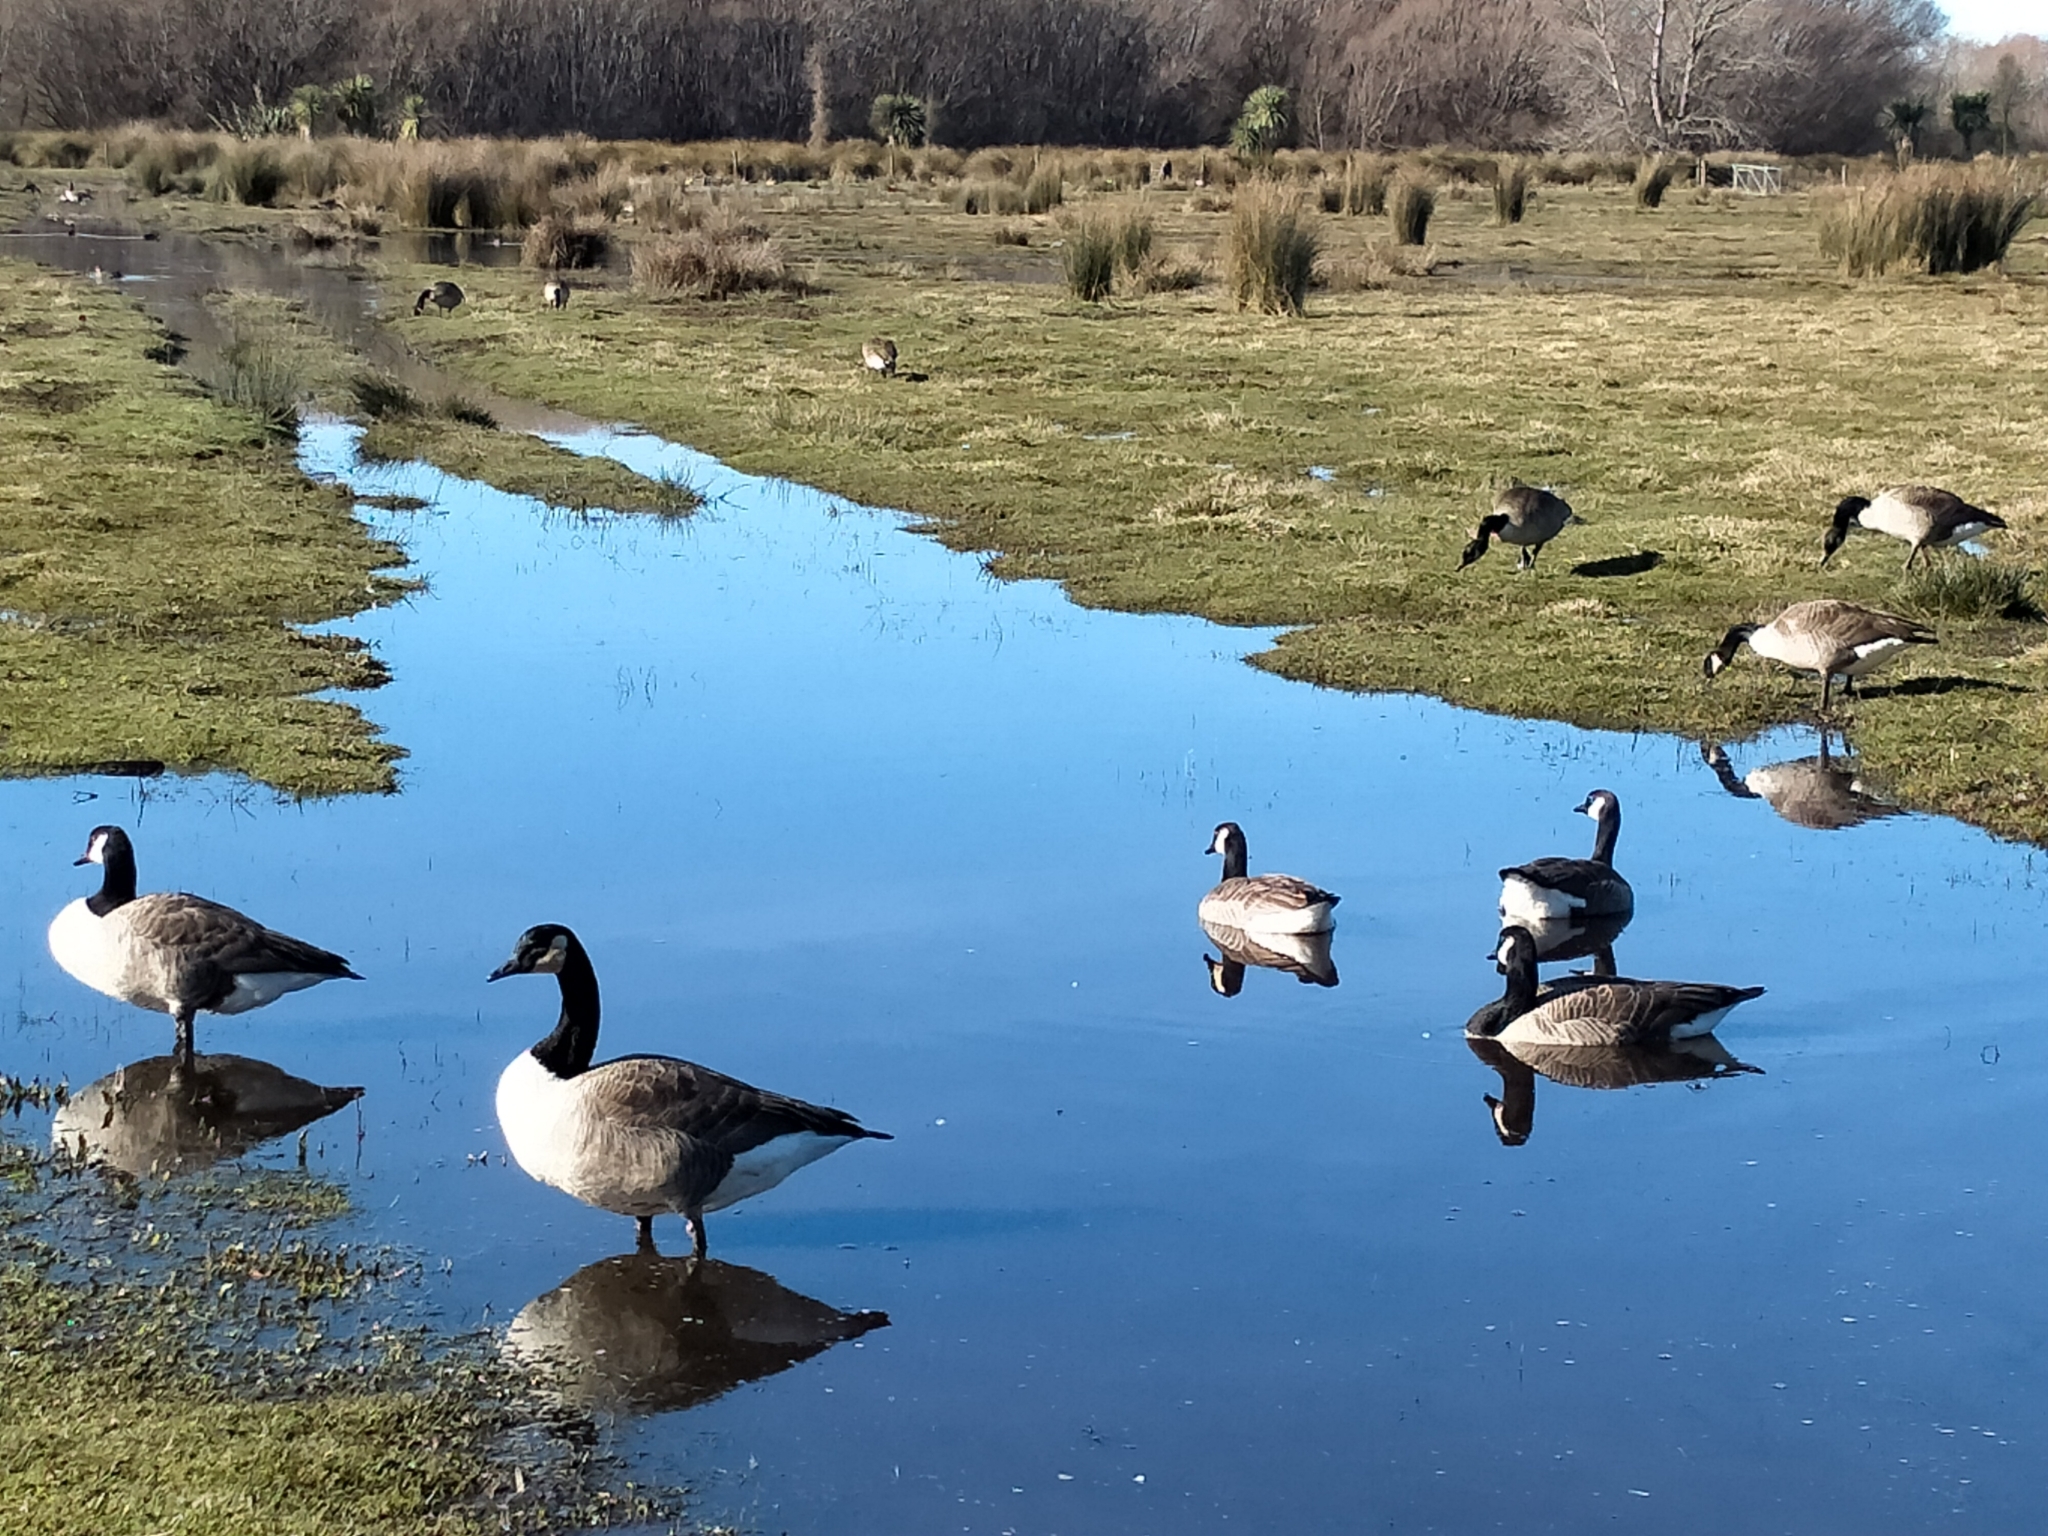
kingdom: Animalia
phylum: Chordata
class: Aves
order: Anseriformes
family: Anatidae
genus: Branta
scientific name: Branta canadensis
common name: Canada goose
